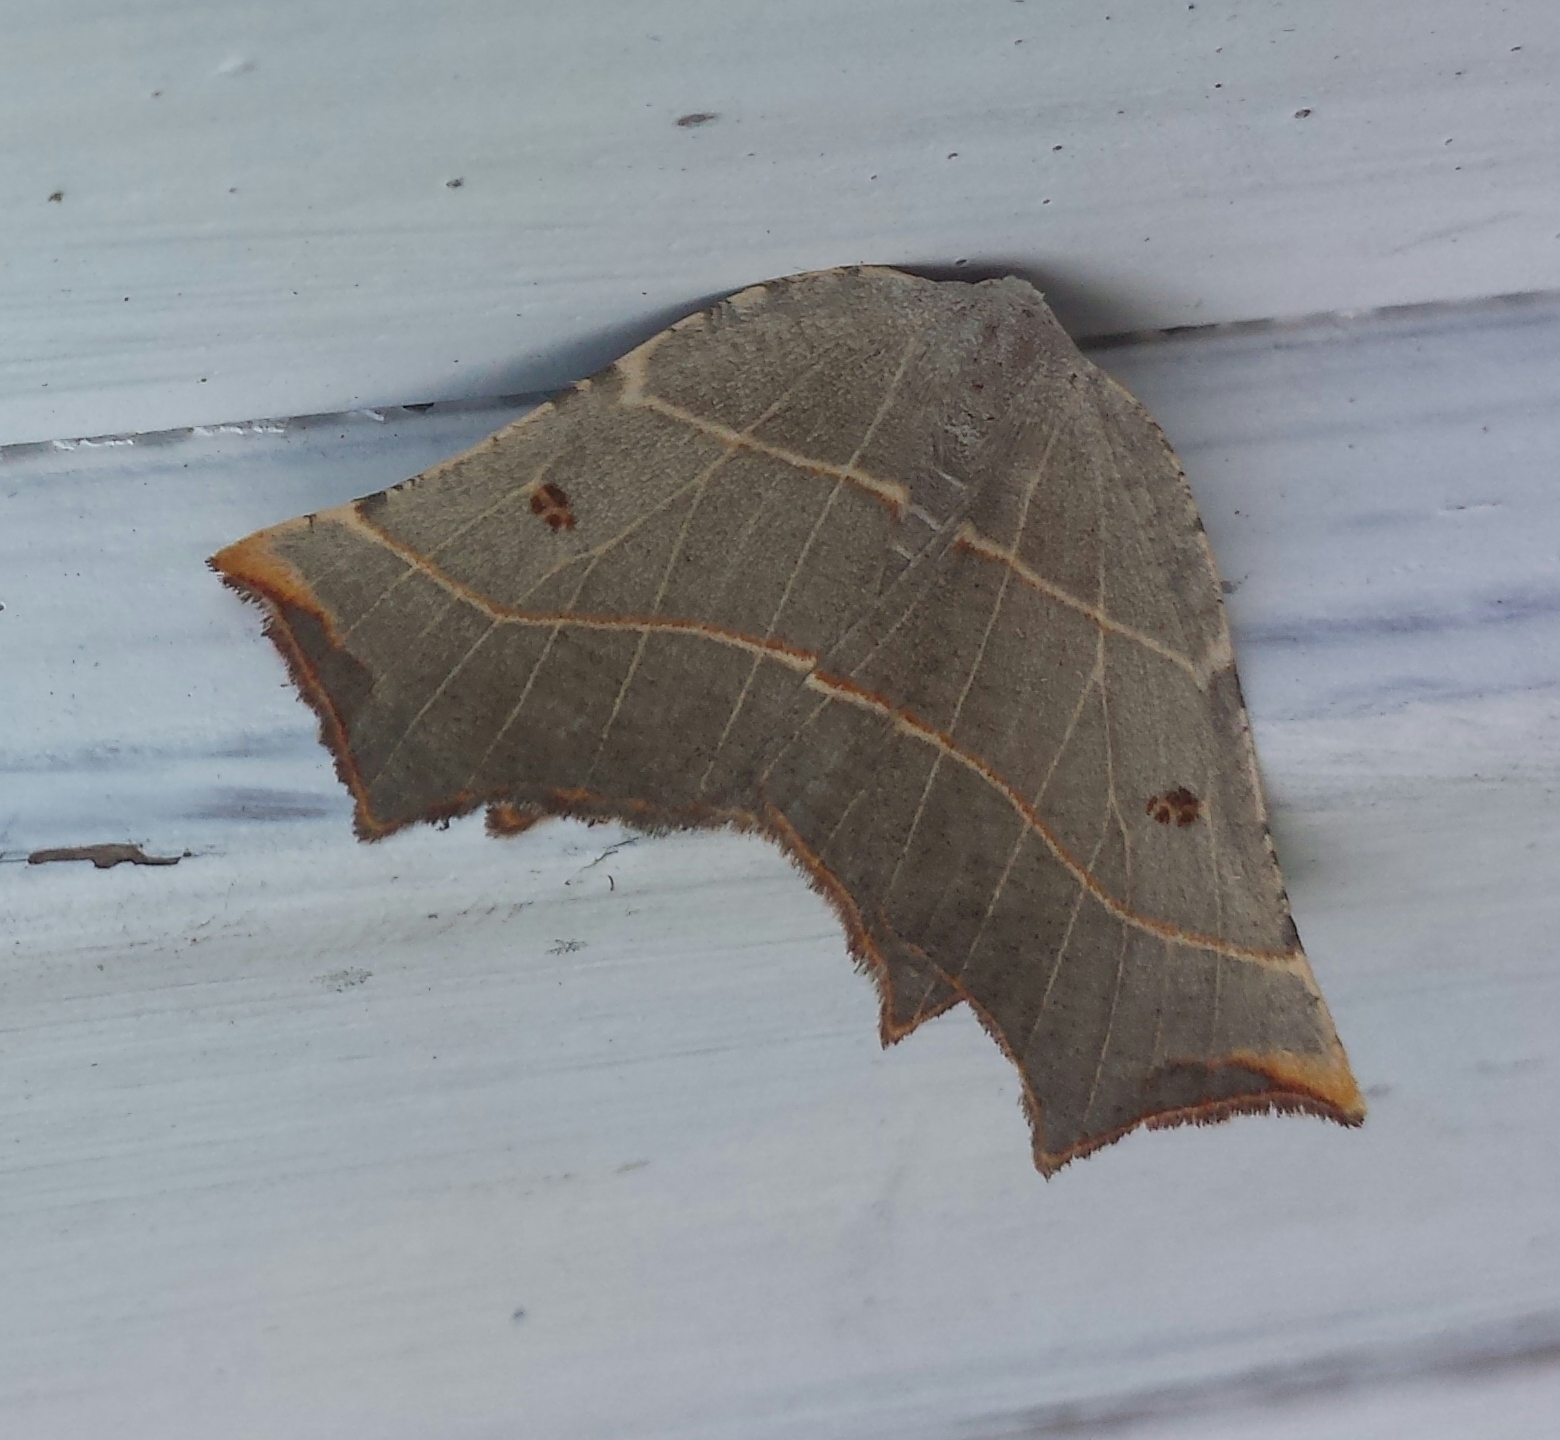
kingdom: Animalia
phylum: Arthropoda
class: Insecta
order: Lepidoptera
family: Geometridae
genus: Metanema
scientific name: Metanema inatomaria
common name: Pale metanema
